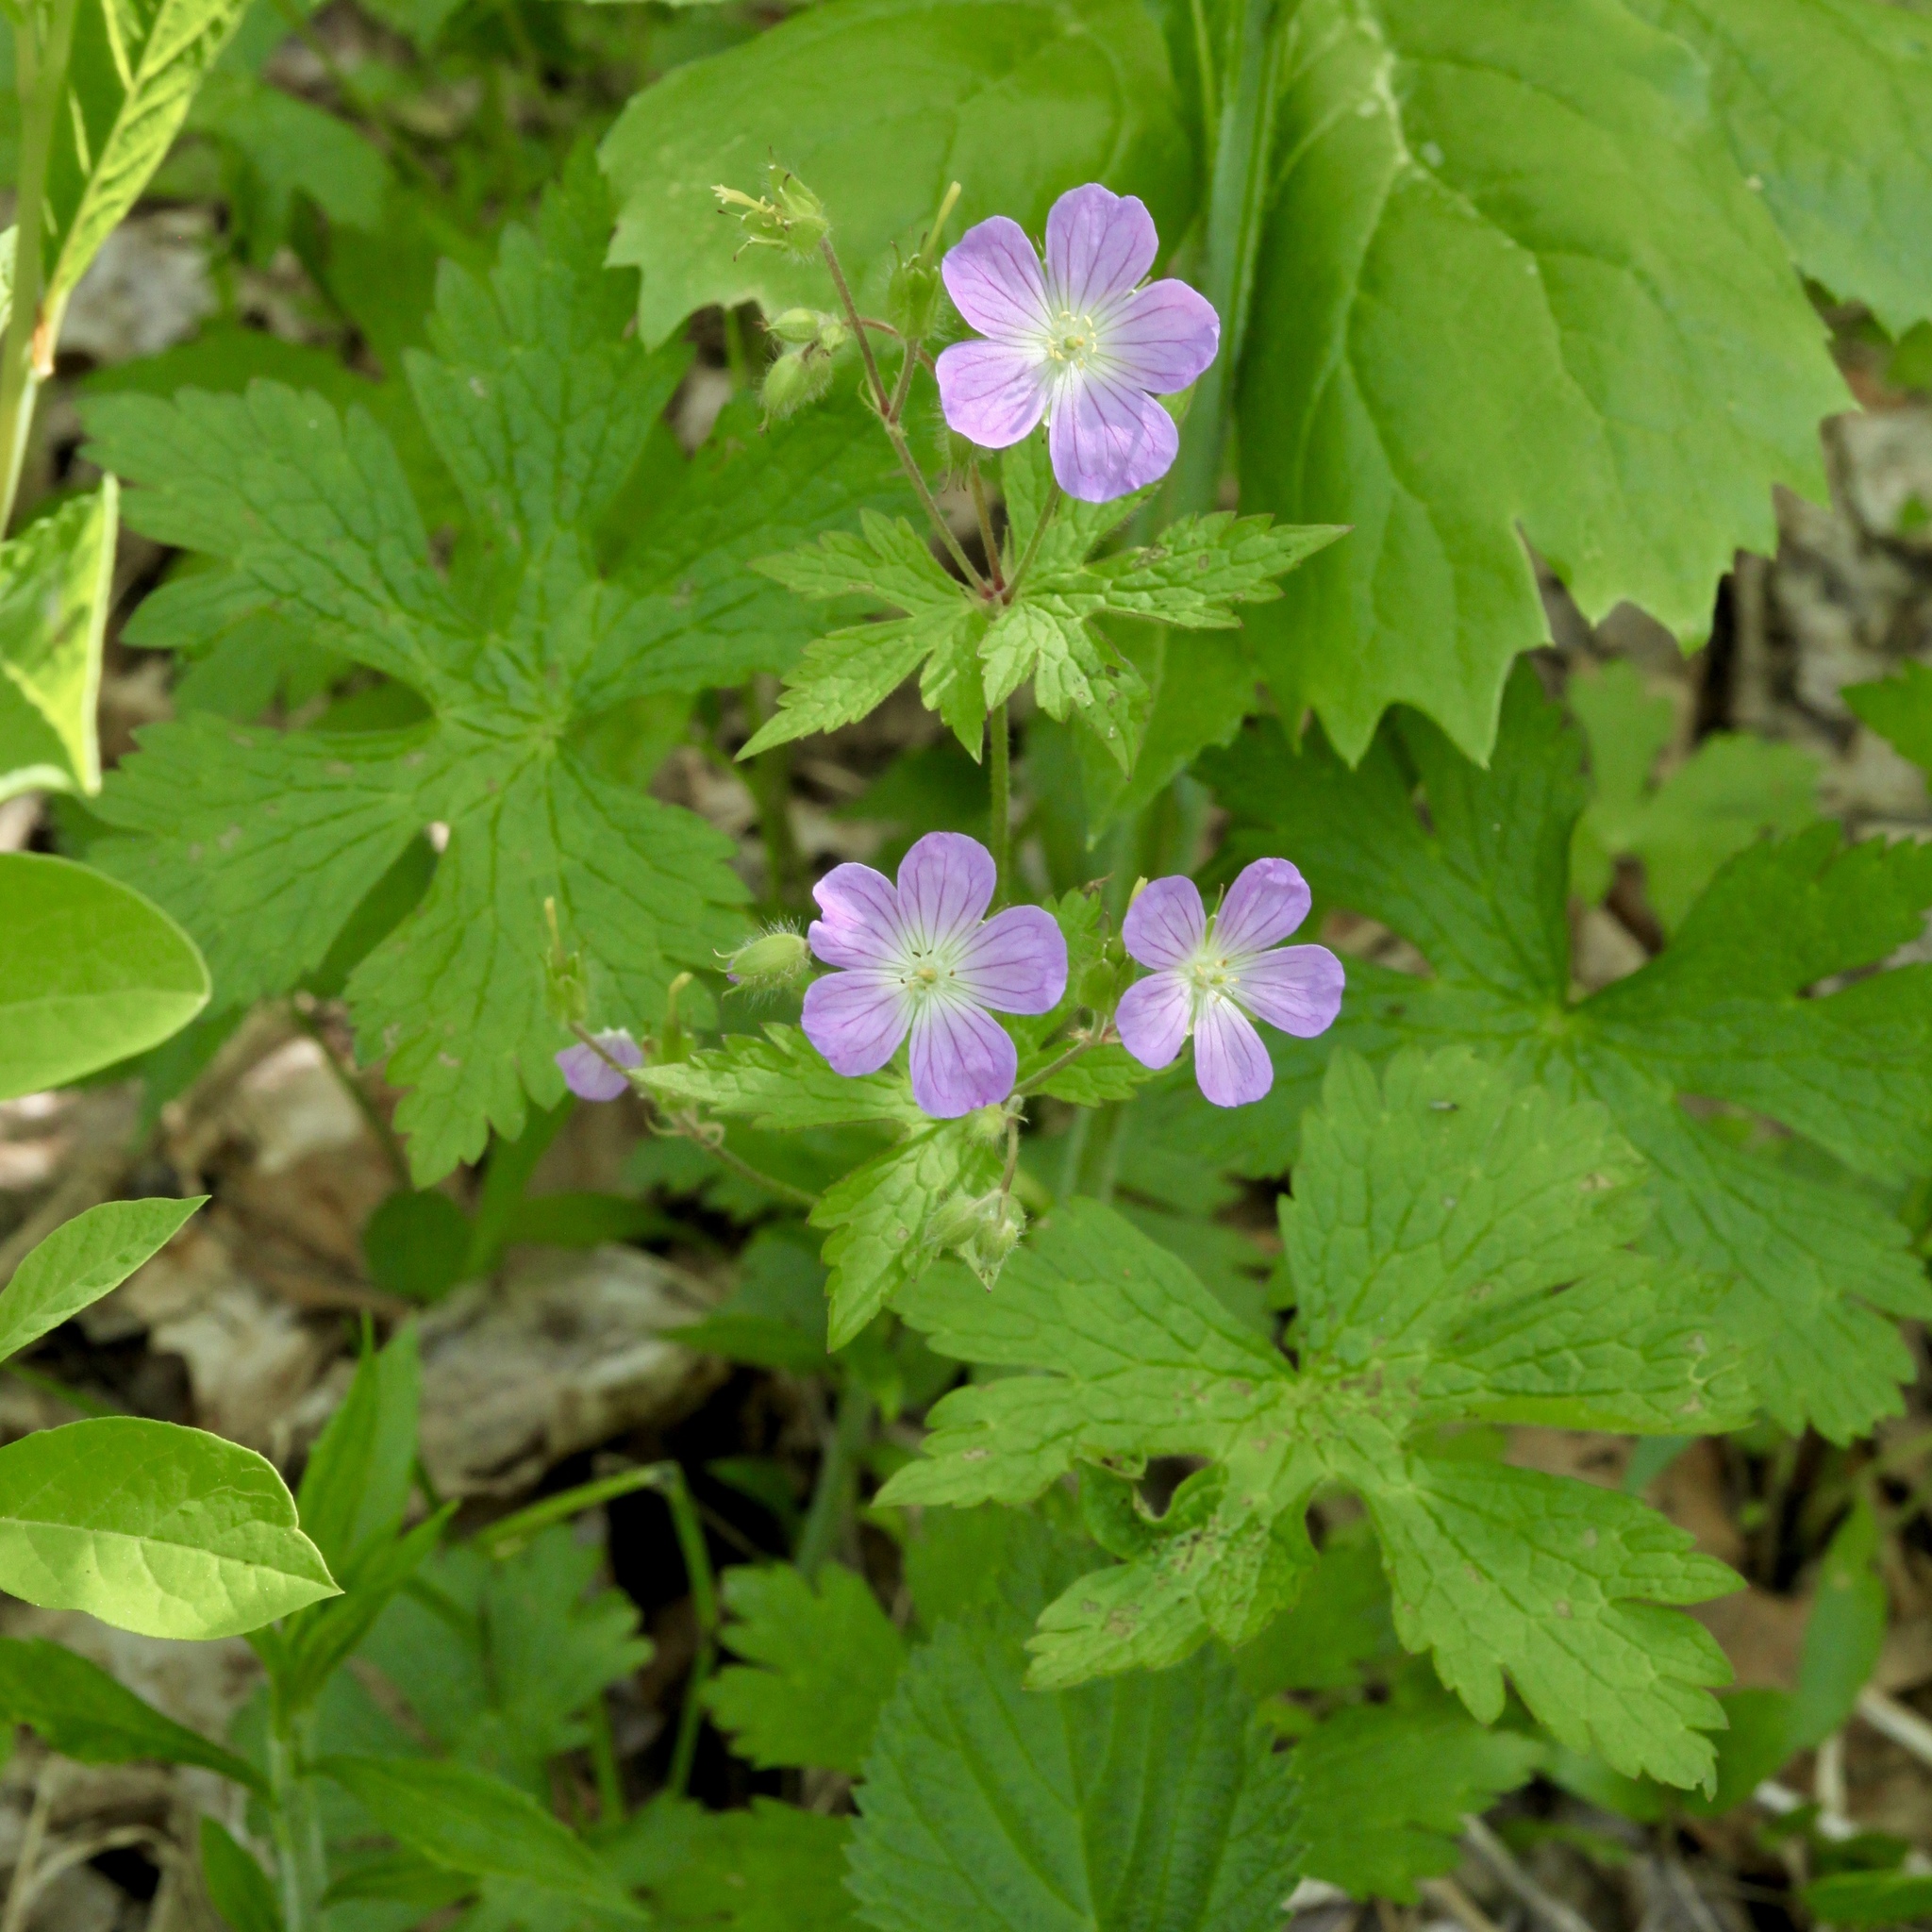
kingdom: Plantae
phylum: Tracheophyta
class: Magnoliopsida
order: Geraniales
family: Geraniaceae
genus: Geranium
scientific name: Geranium maculatum
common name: Spotted geranium
